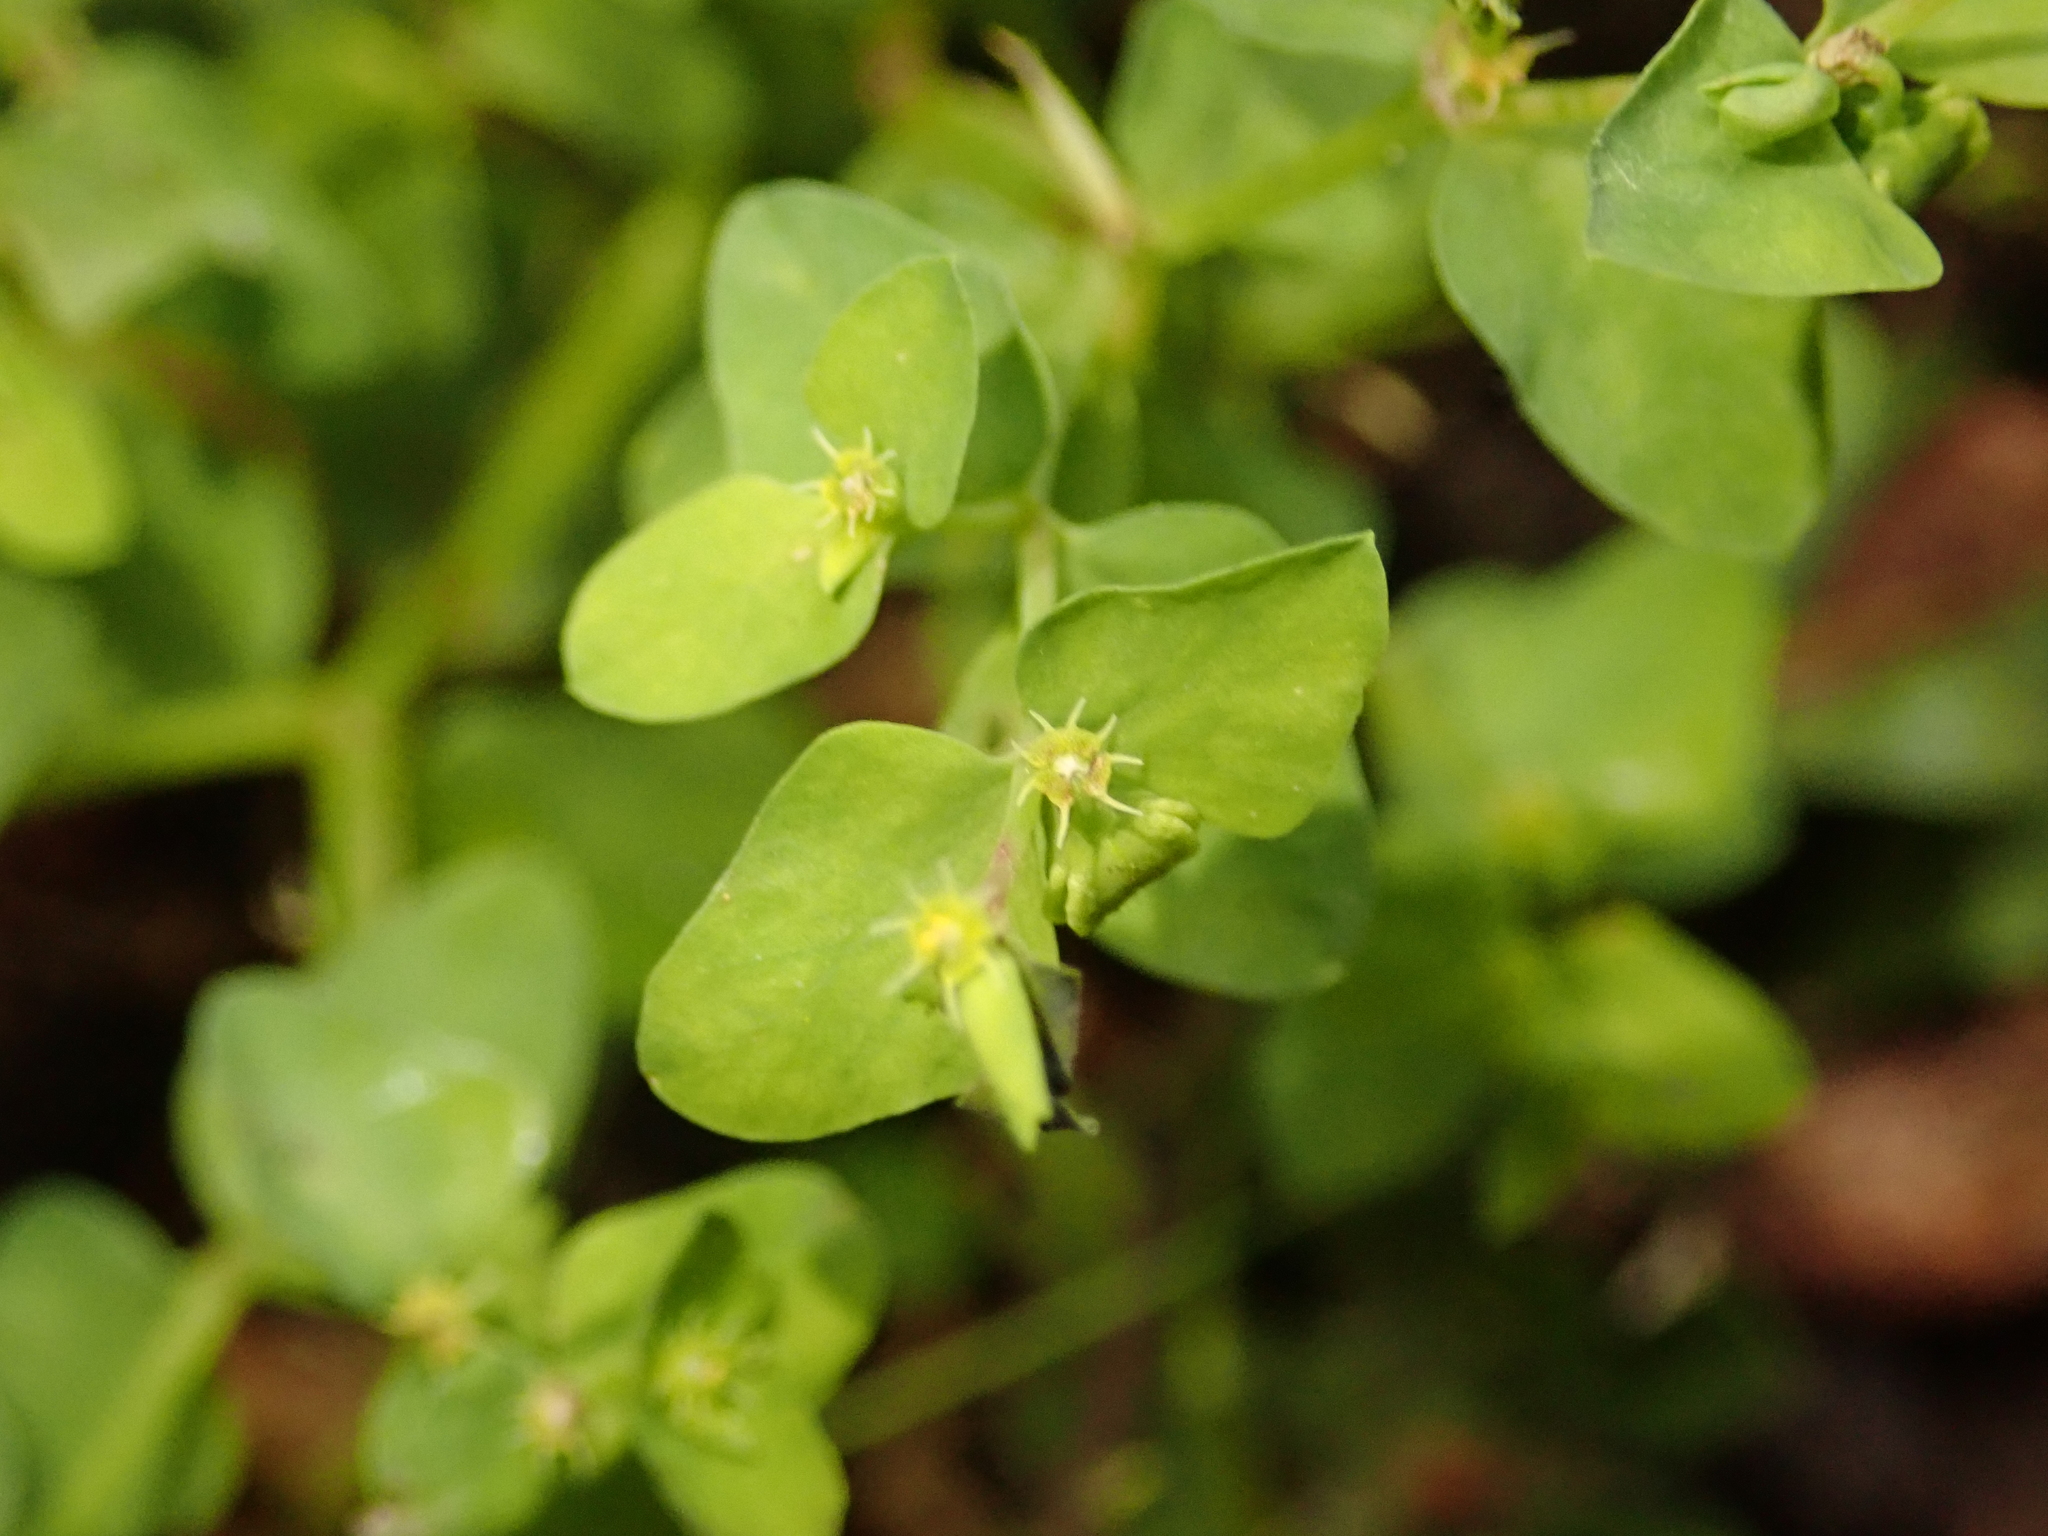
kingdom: Plantae
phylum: Tracheophyta
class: Magnoliopsida
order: Malpighiales
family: Euphorbiaceae
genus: Euphorbia
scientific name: Euphorbia peplus
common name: Petty spurge
